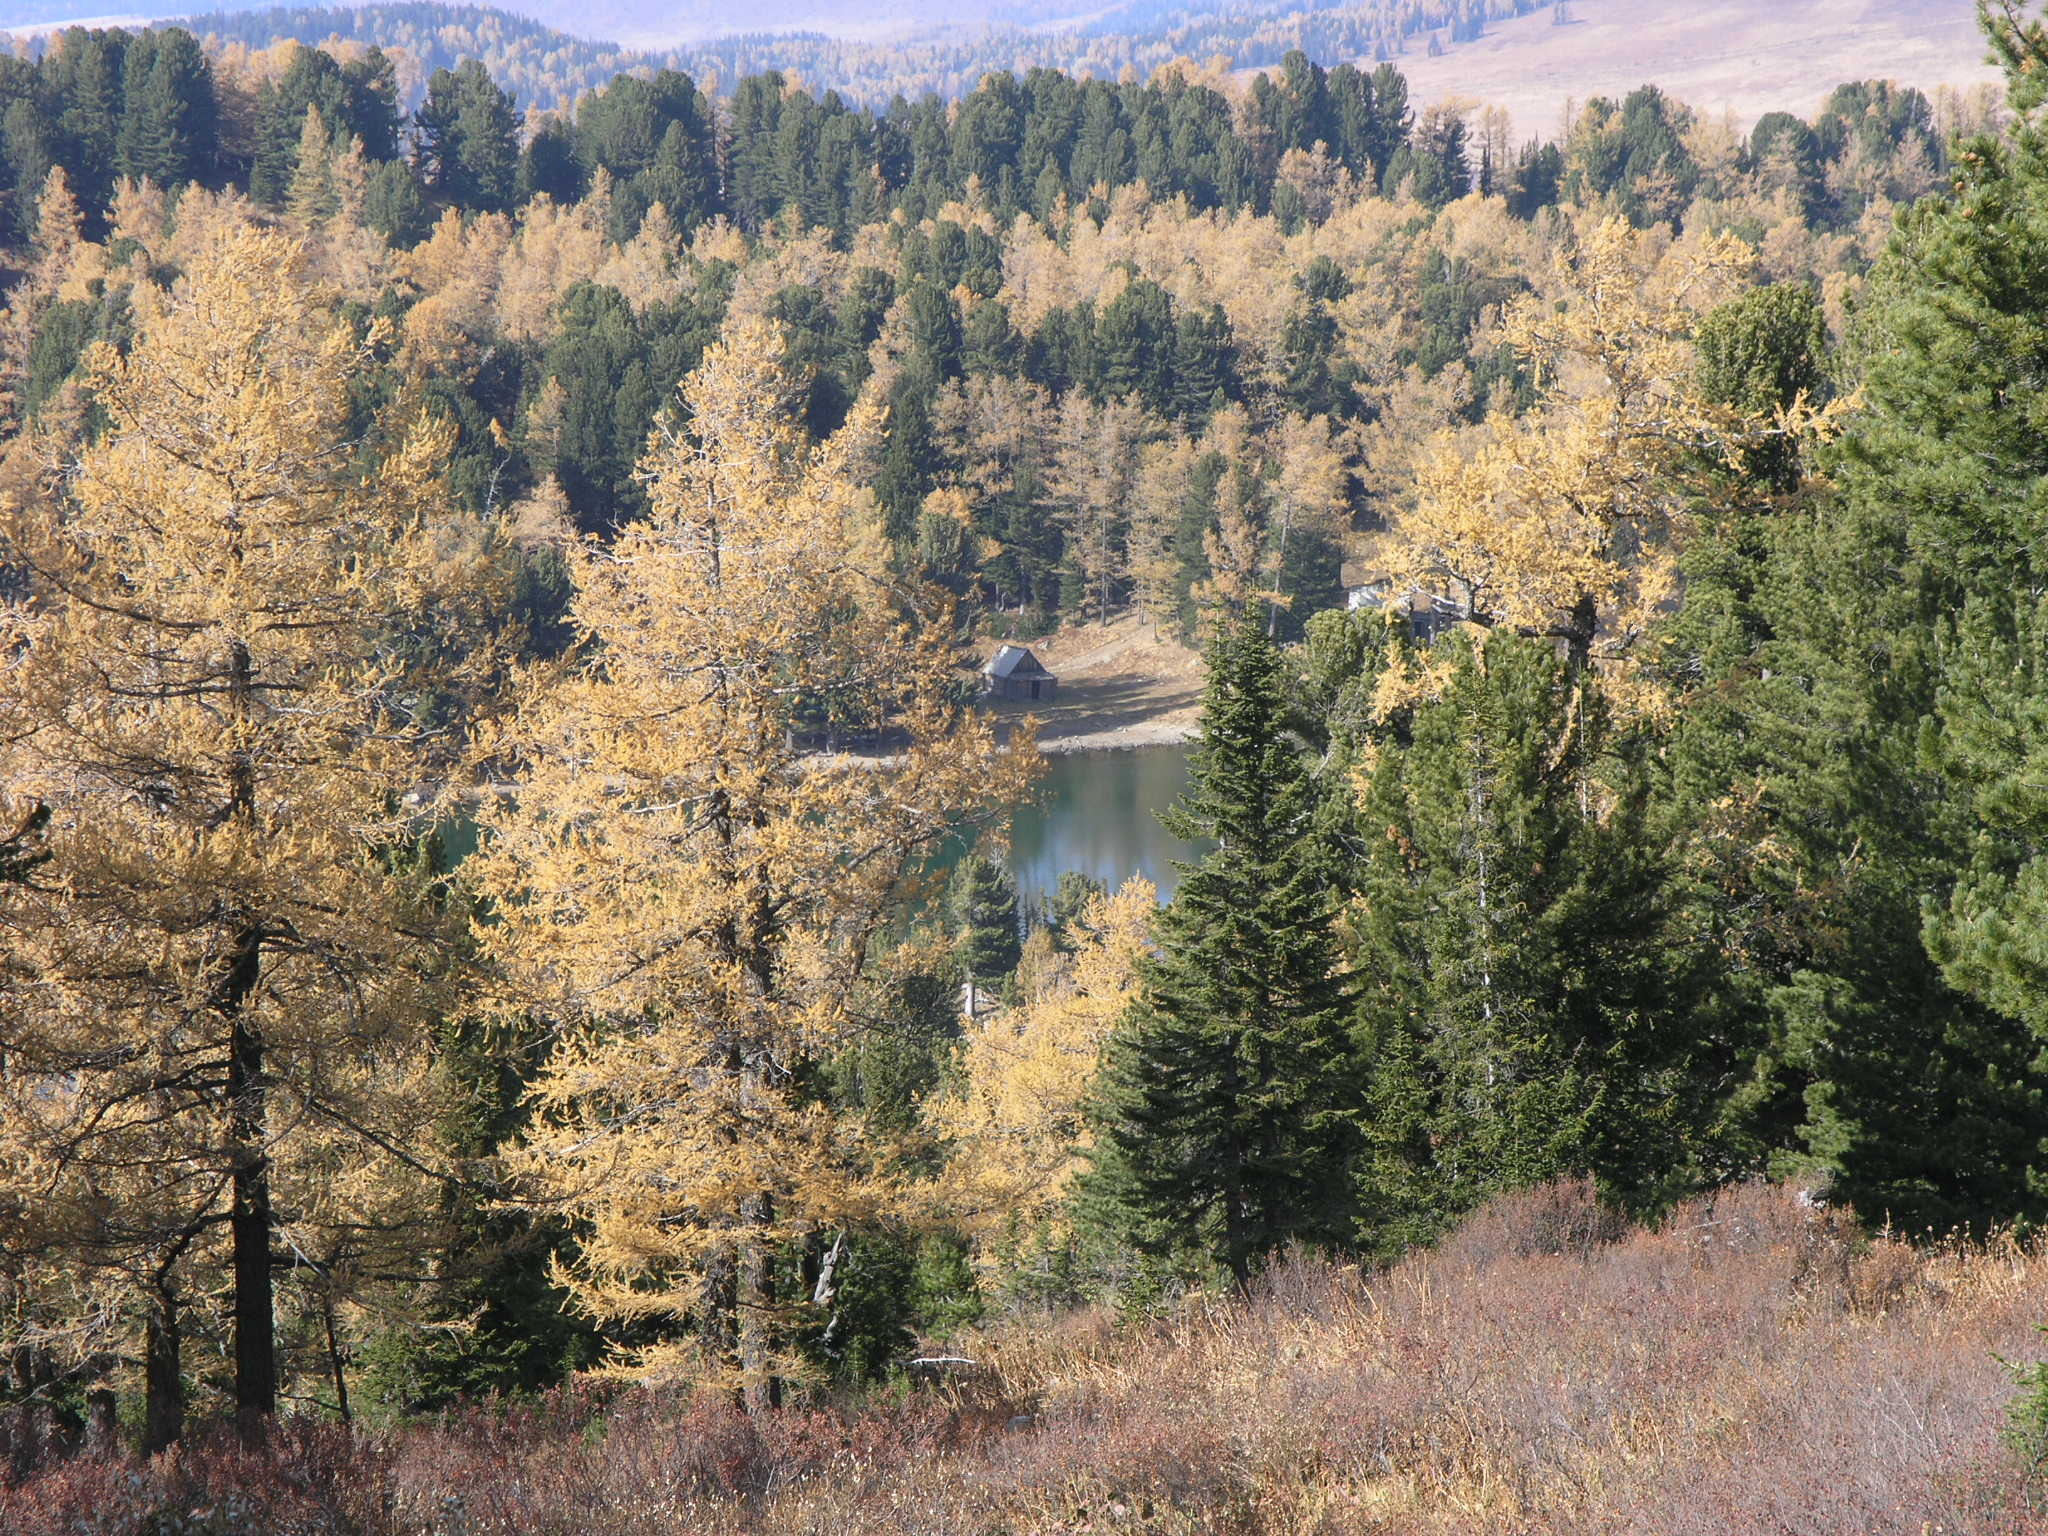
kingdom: Plantae
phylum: Tracheophyta
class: Pinopsida
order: Pinales
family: Pinaceae
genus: Pinus
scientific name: Pinus sibirica
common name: Siberian pine
